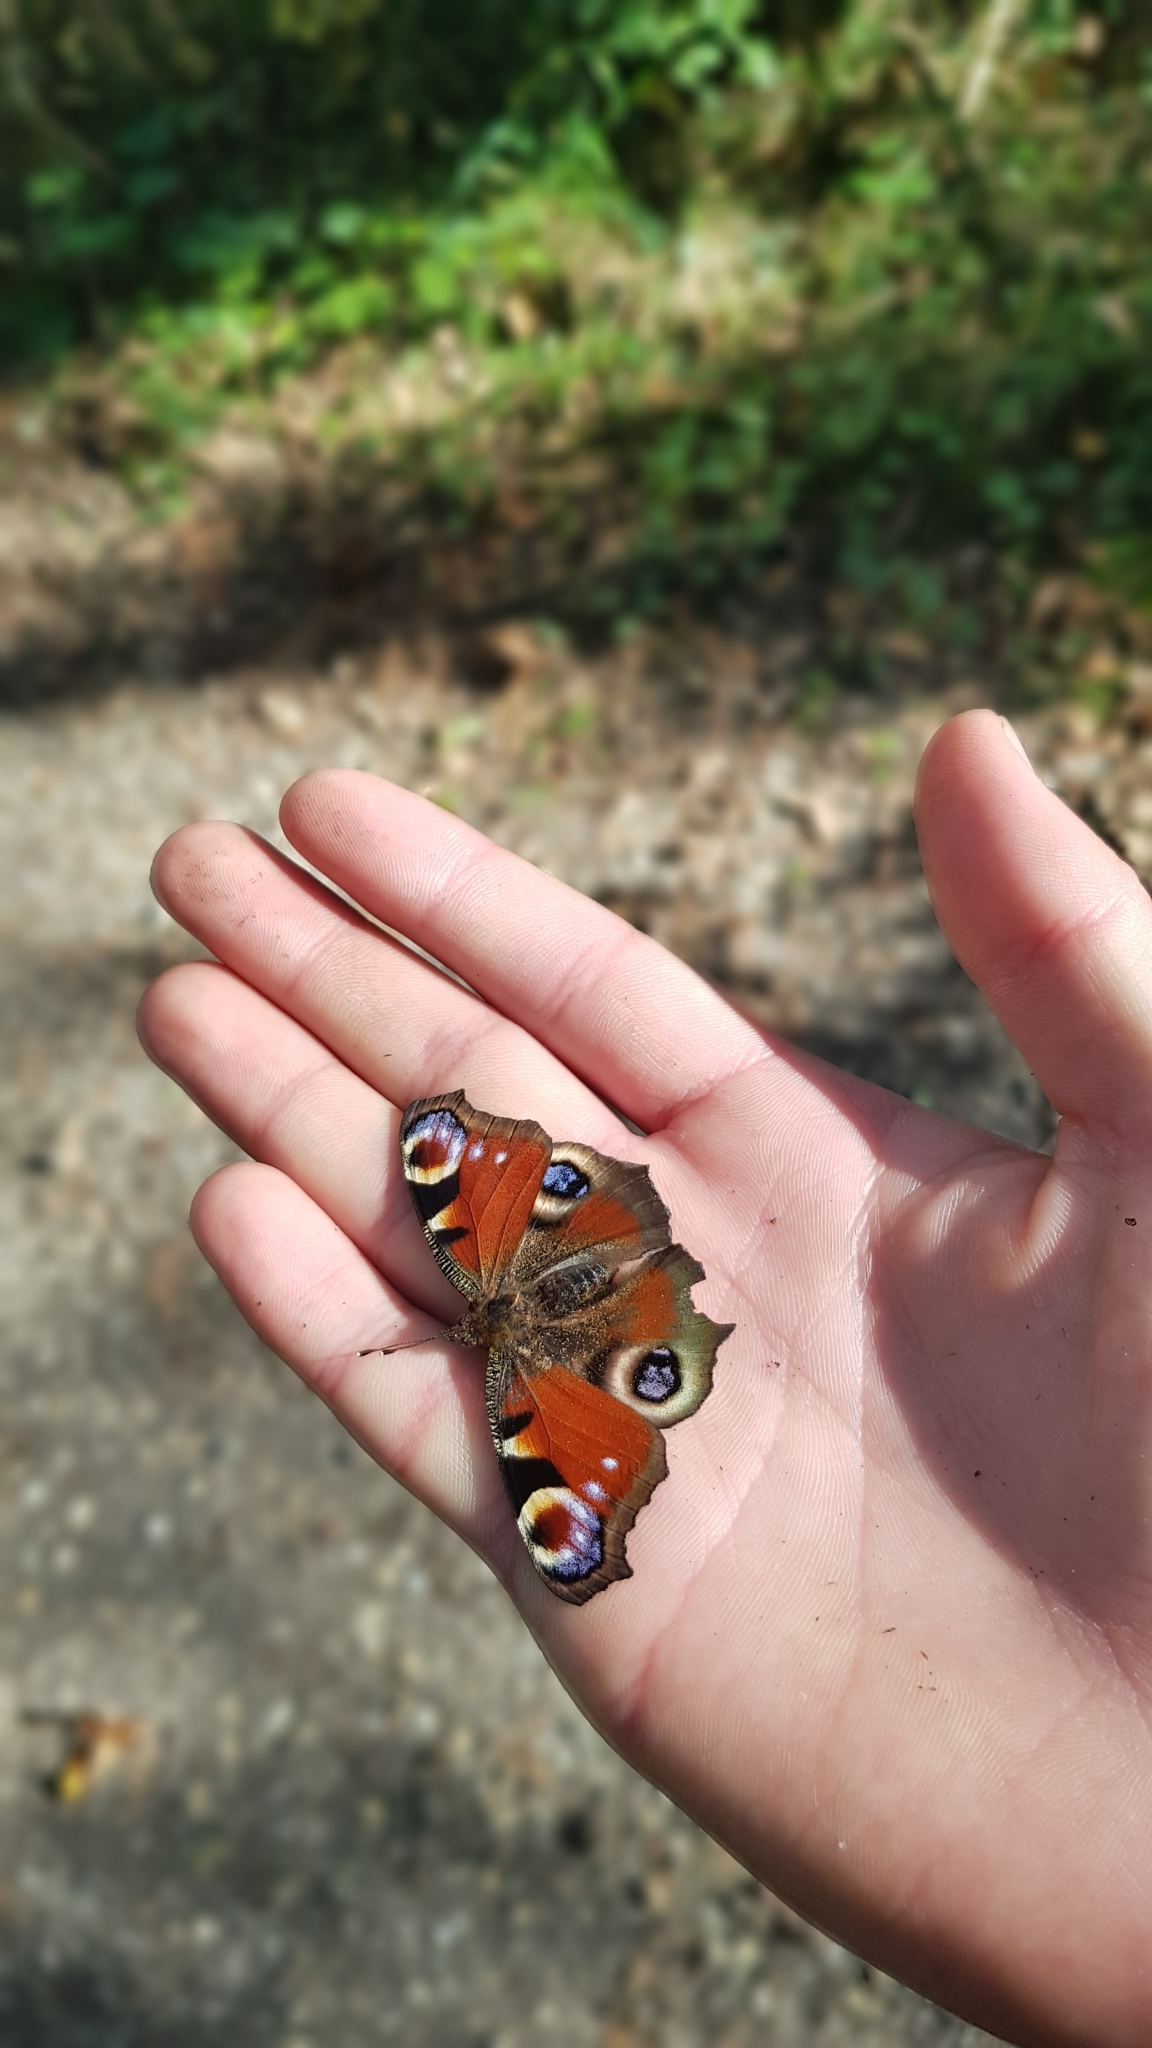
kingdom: Animalia
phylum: Arthropoda
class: Insecta
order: Lepidoptera
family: Nymphalidae
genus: Aglais
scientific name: Aglais io
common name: Peacock
